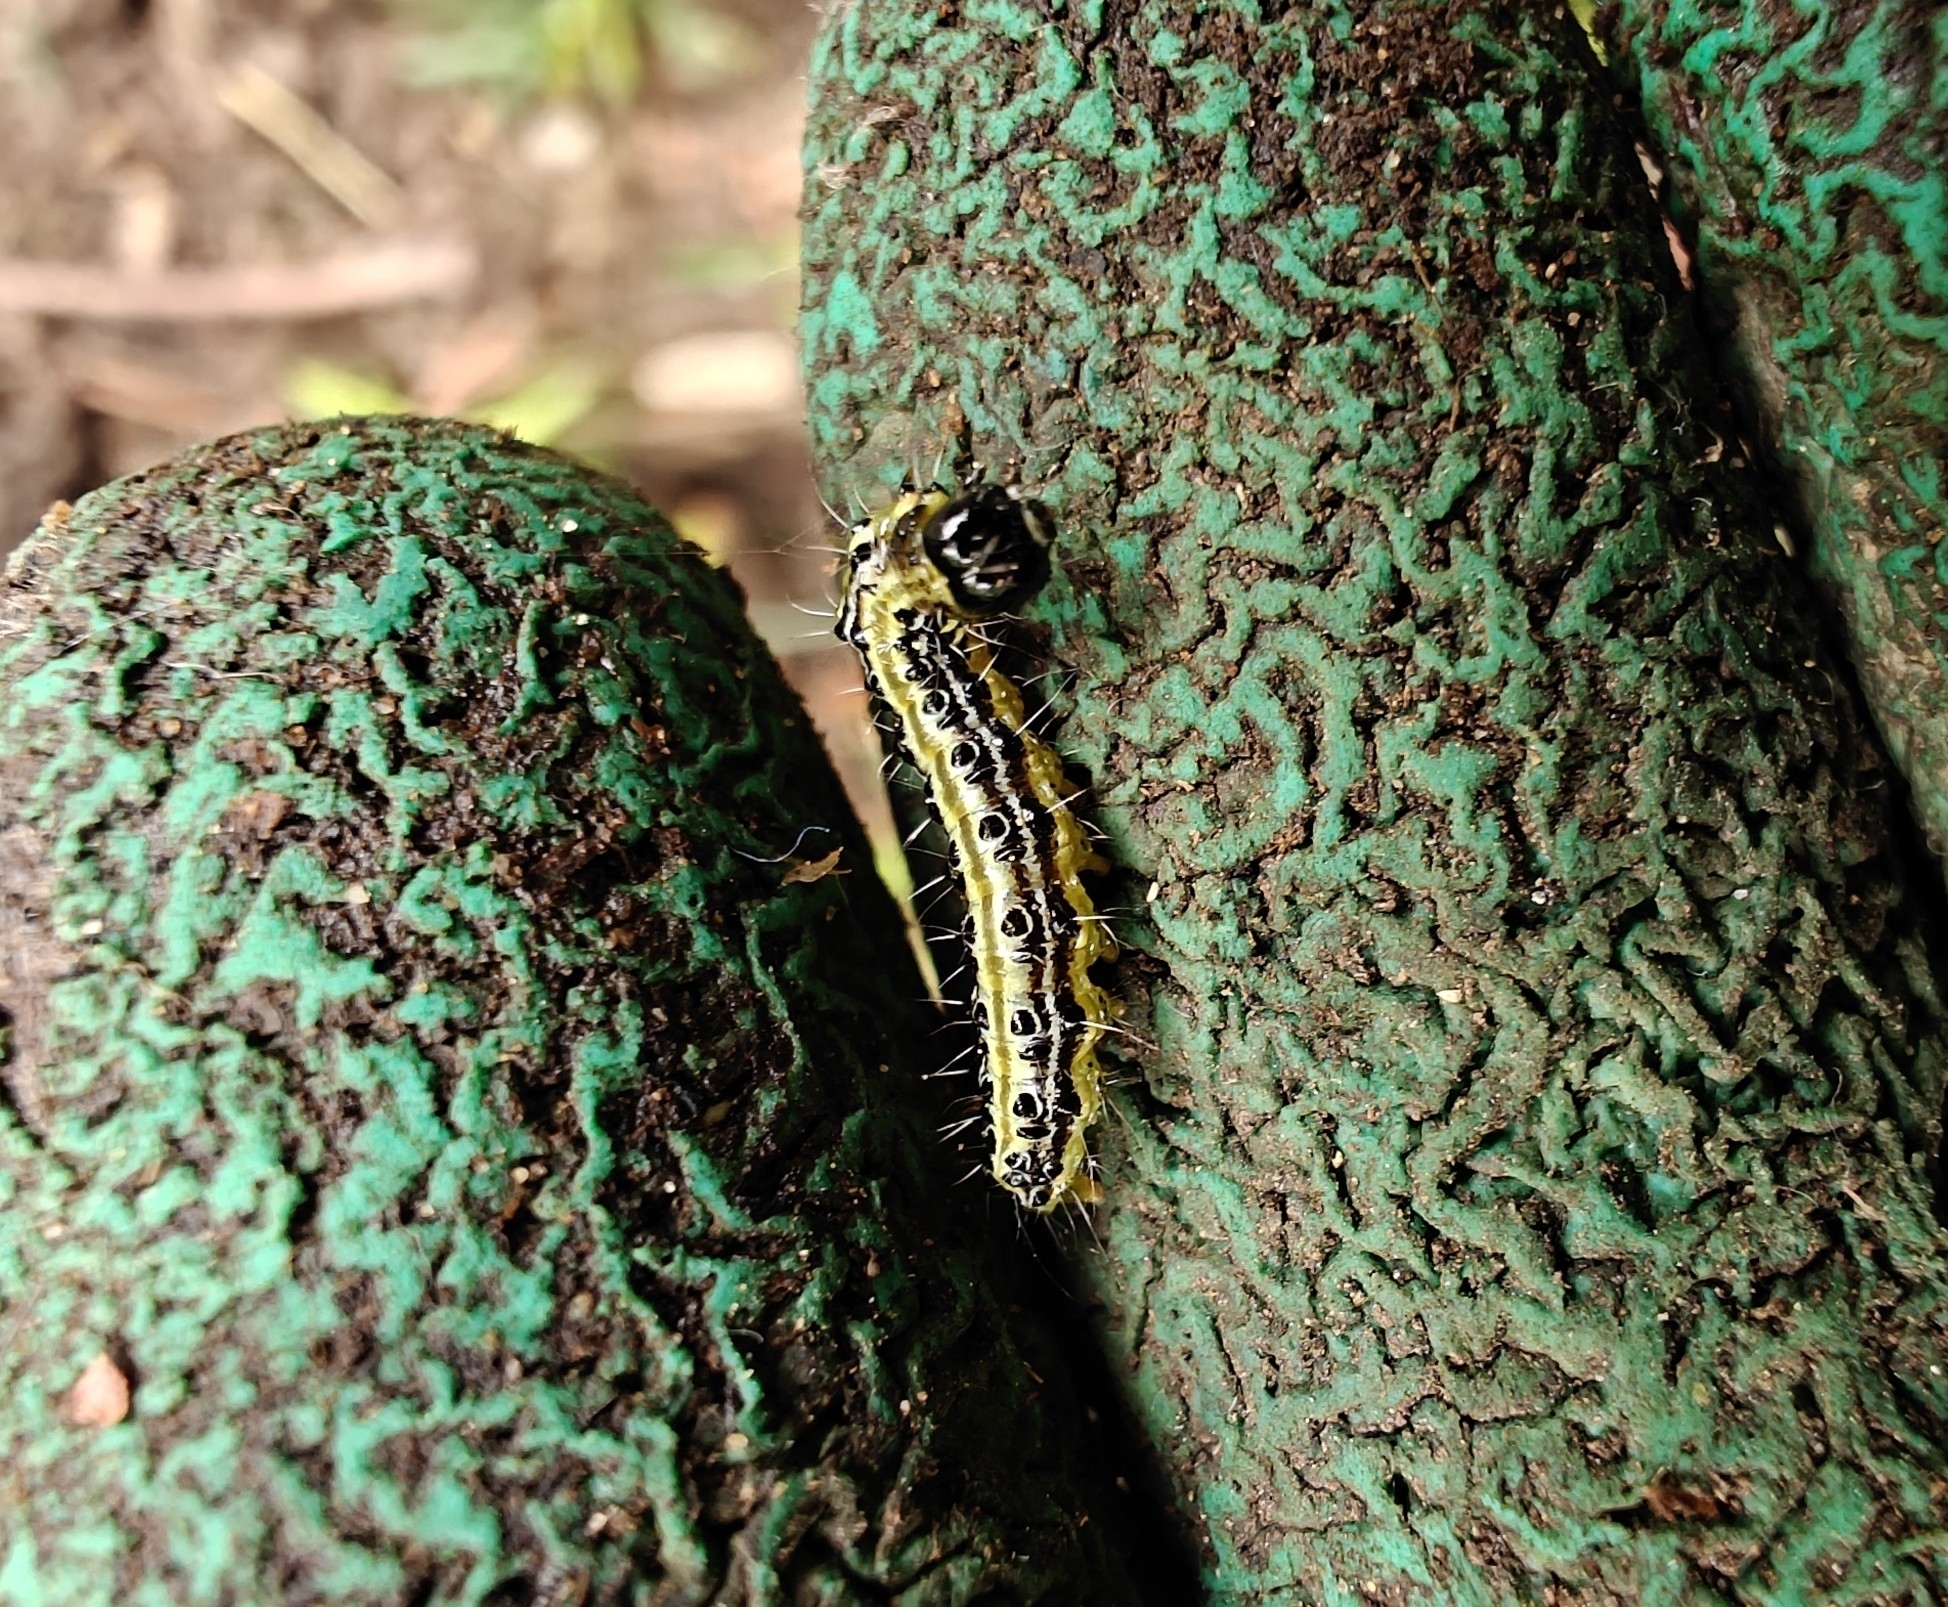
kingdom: Animalia
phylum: Arthropoda
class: Insecta
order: Lepidoptera
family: Crambidae
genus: Cydalima
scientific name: Cydalima perspectalis
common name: Box tree moth
